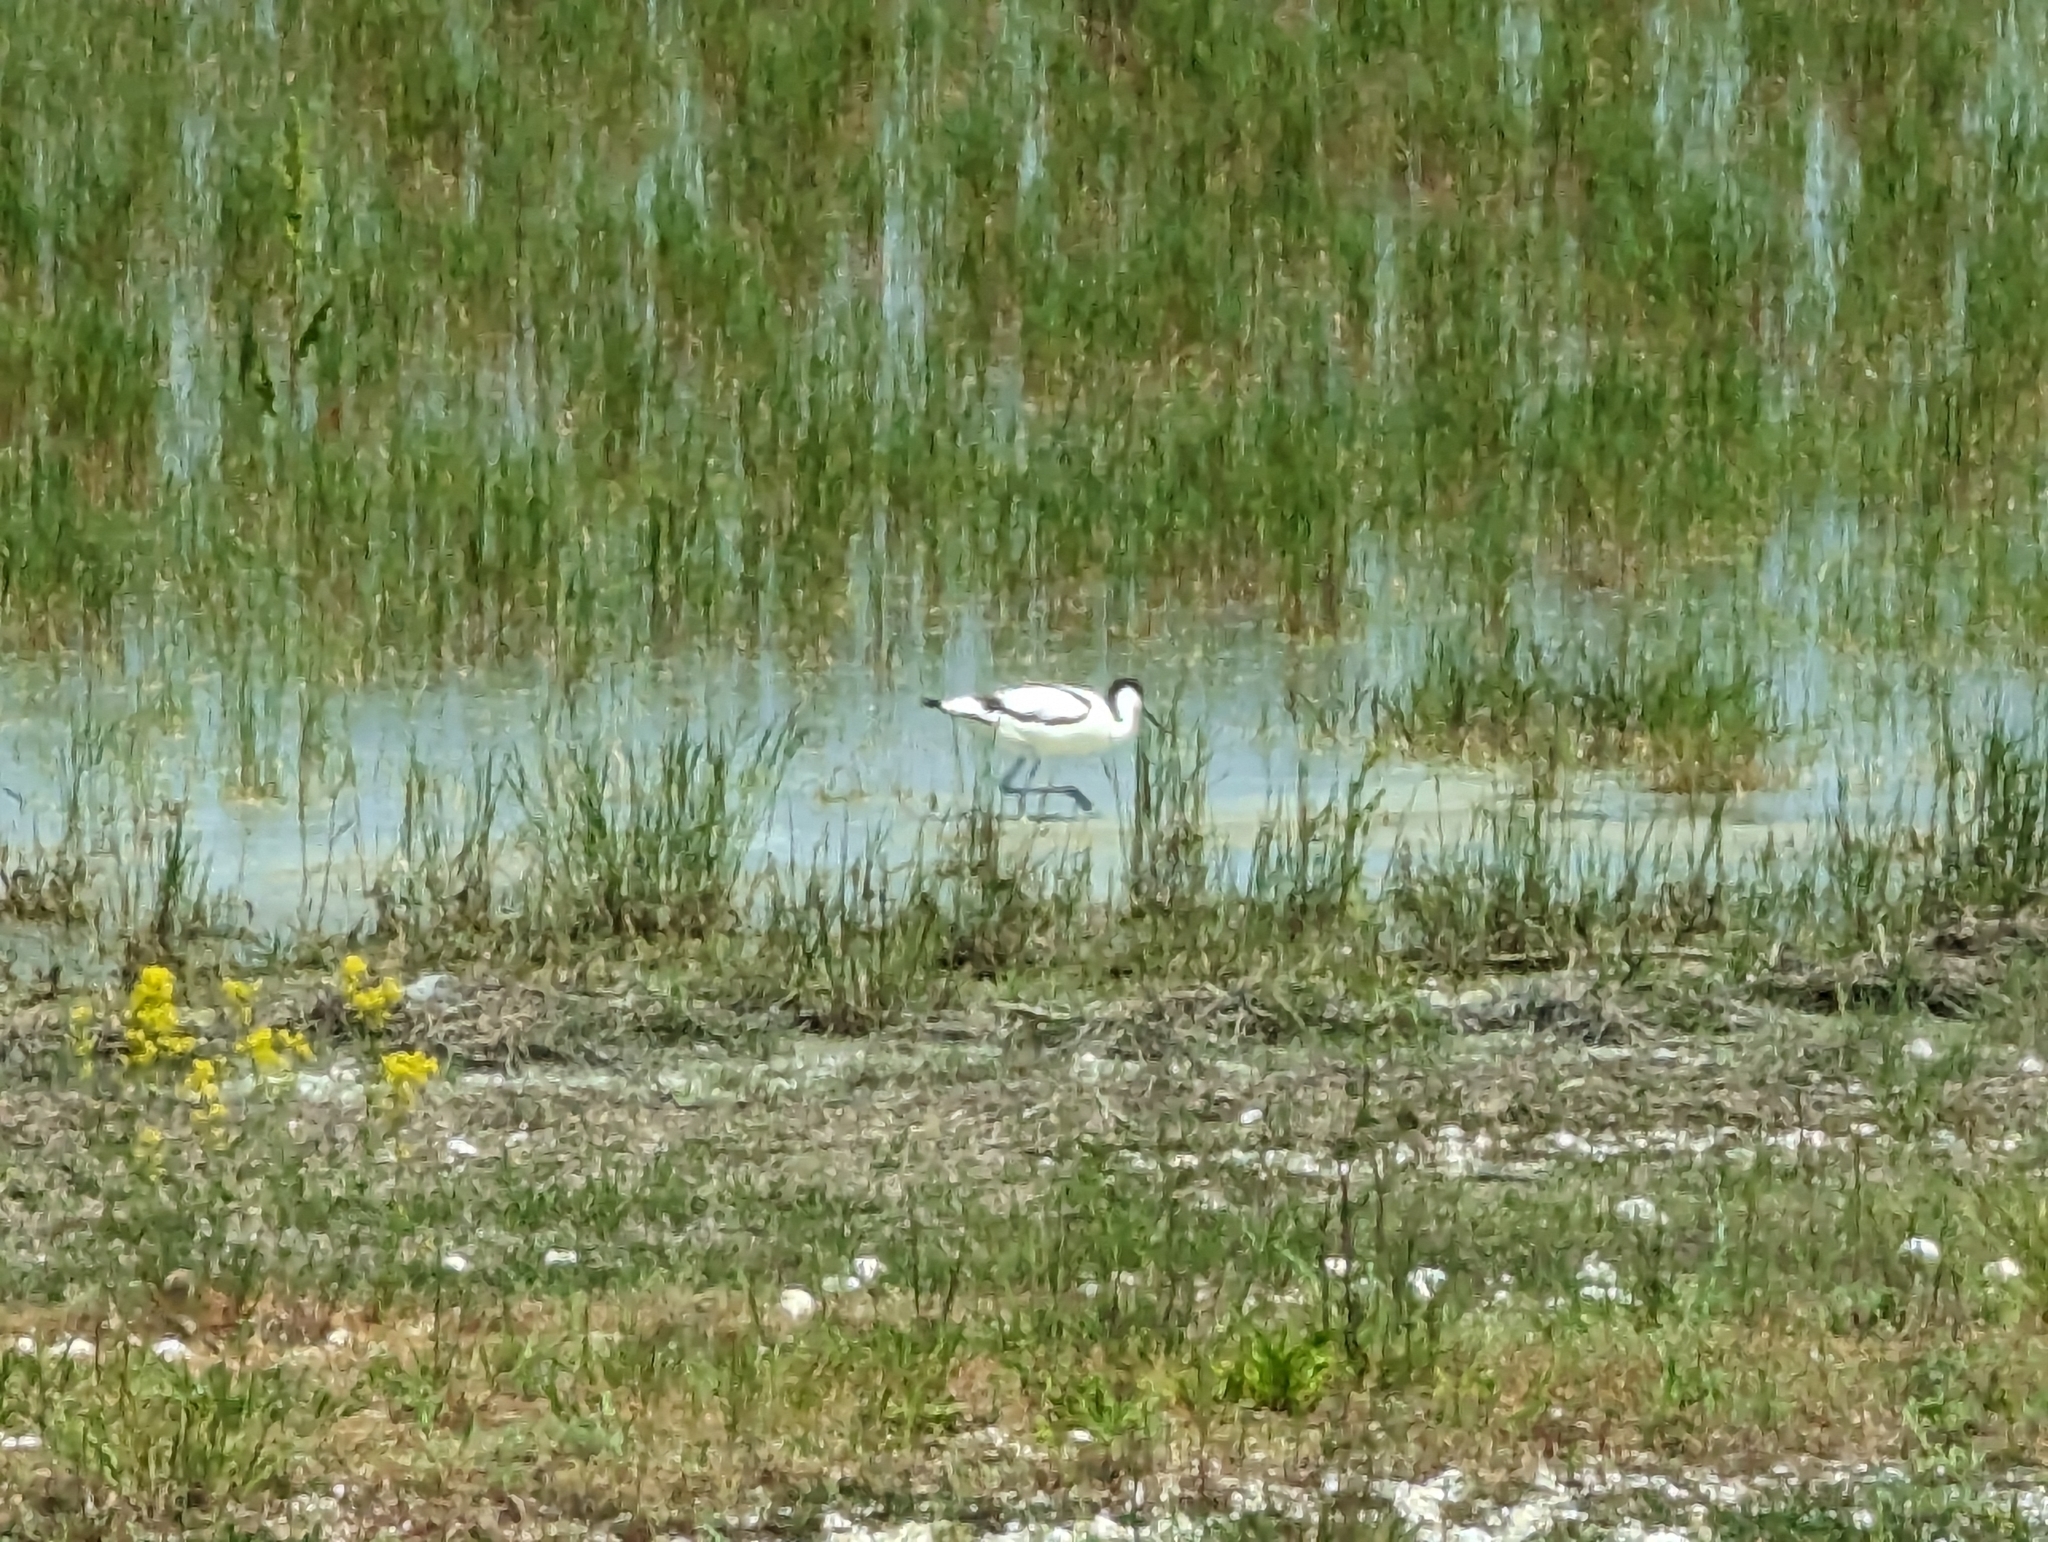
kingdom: Animalia
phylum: Chordata
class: Aves
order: Charadriiformes
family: Recurvirostridae
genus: Recurvirostra
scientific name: Recurvirostra avosetta
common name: Pied avocet
